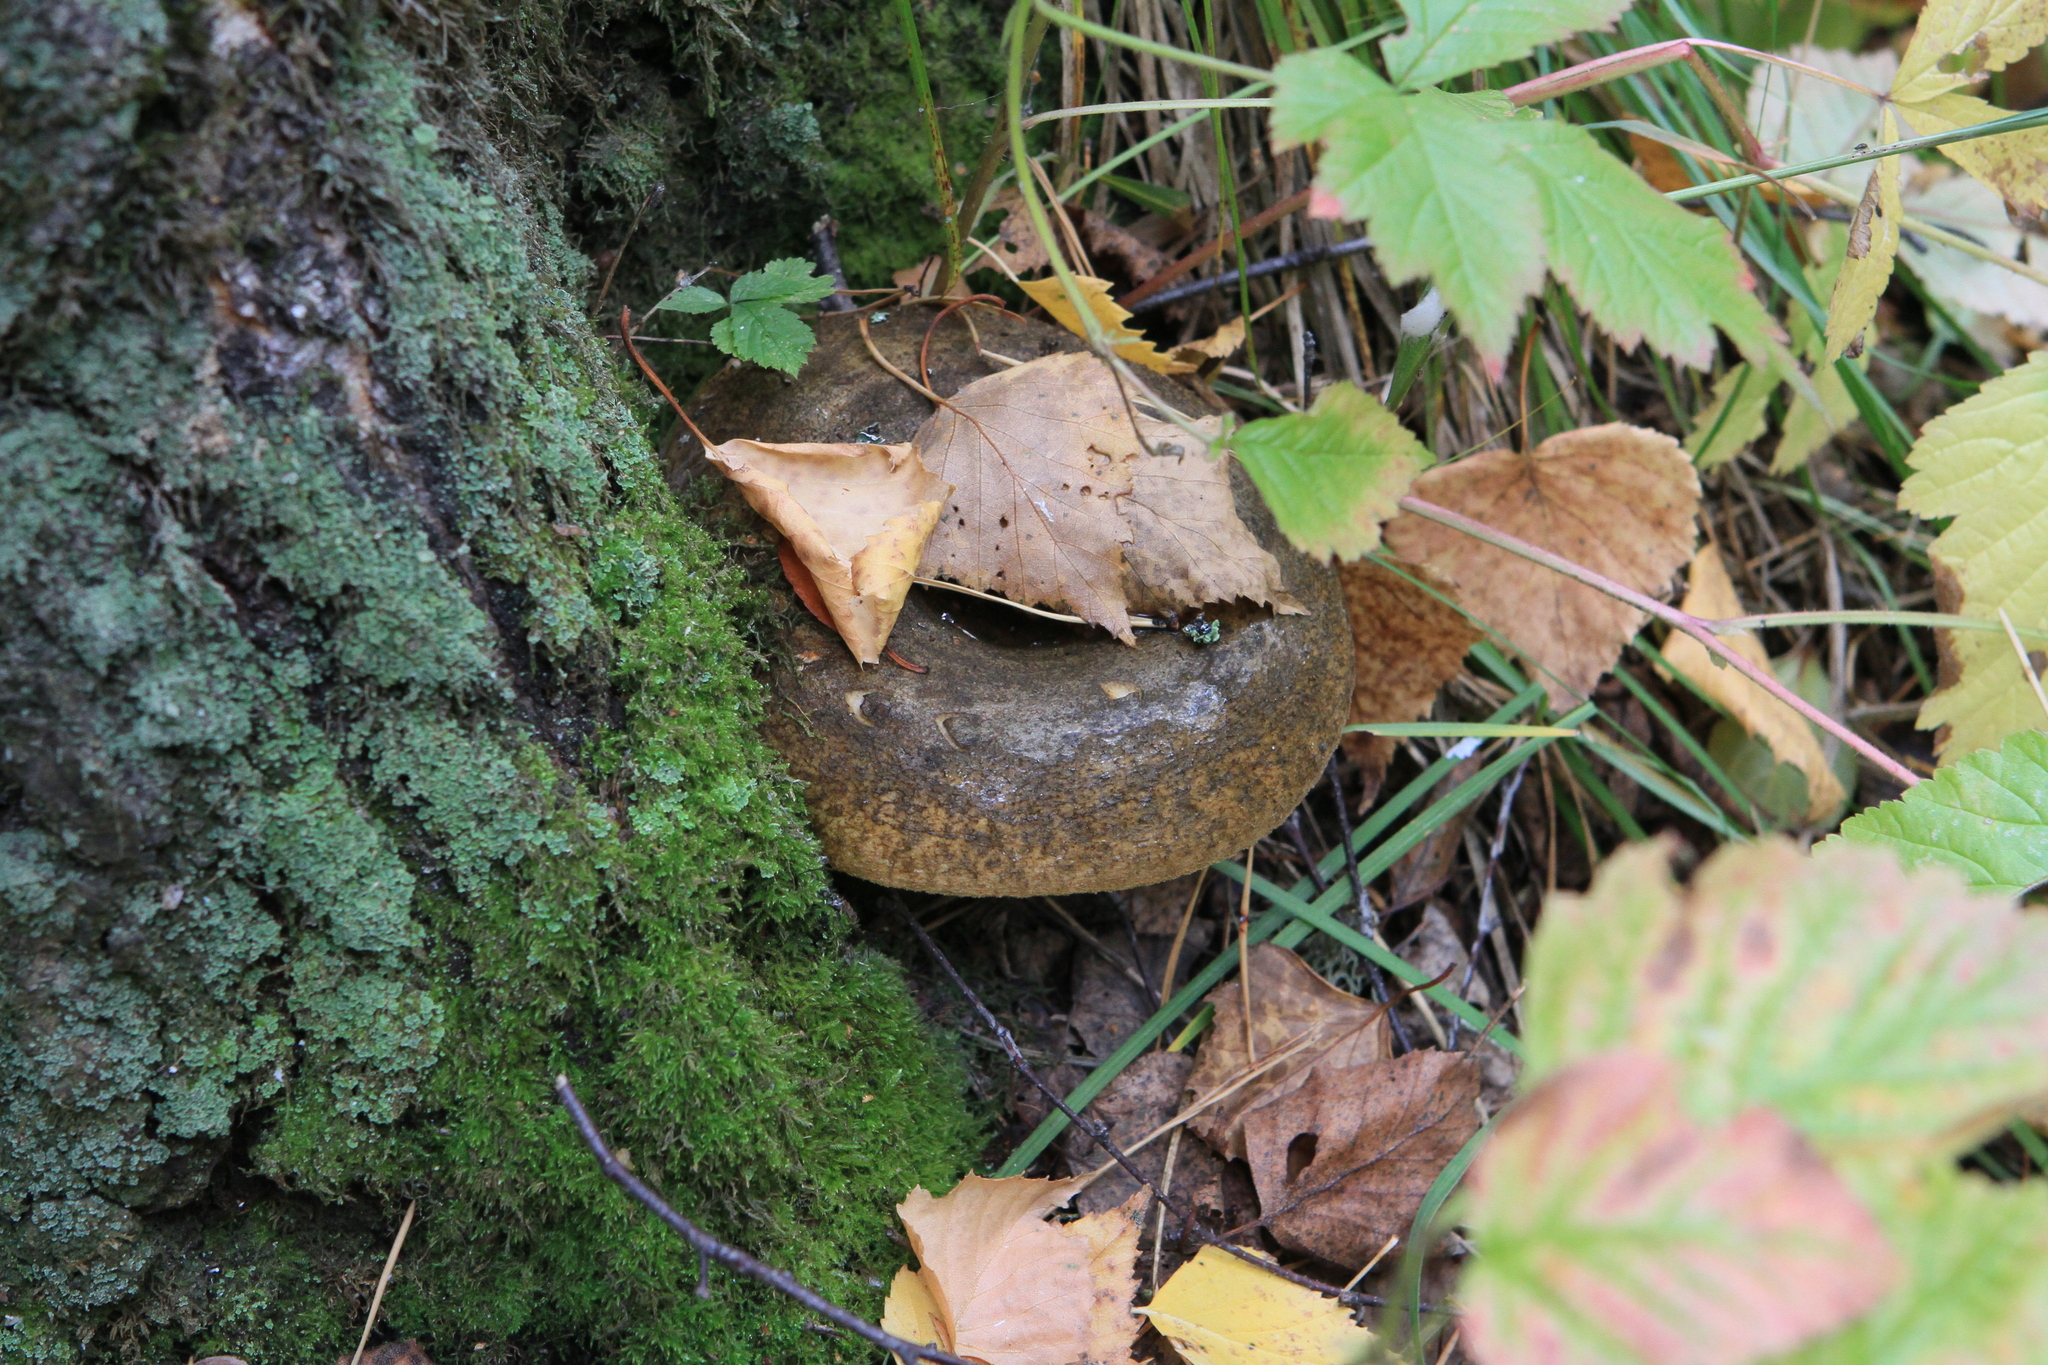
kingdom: Fungi
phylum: Basidiomycota
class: Agaricomycetes
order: Russulales
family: Russulaceae
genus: Lactarius
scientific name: Lactarius turpis
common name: Ugly milk-cap
